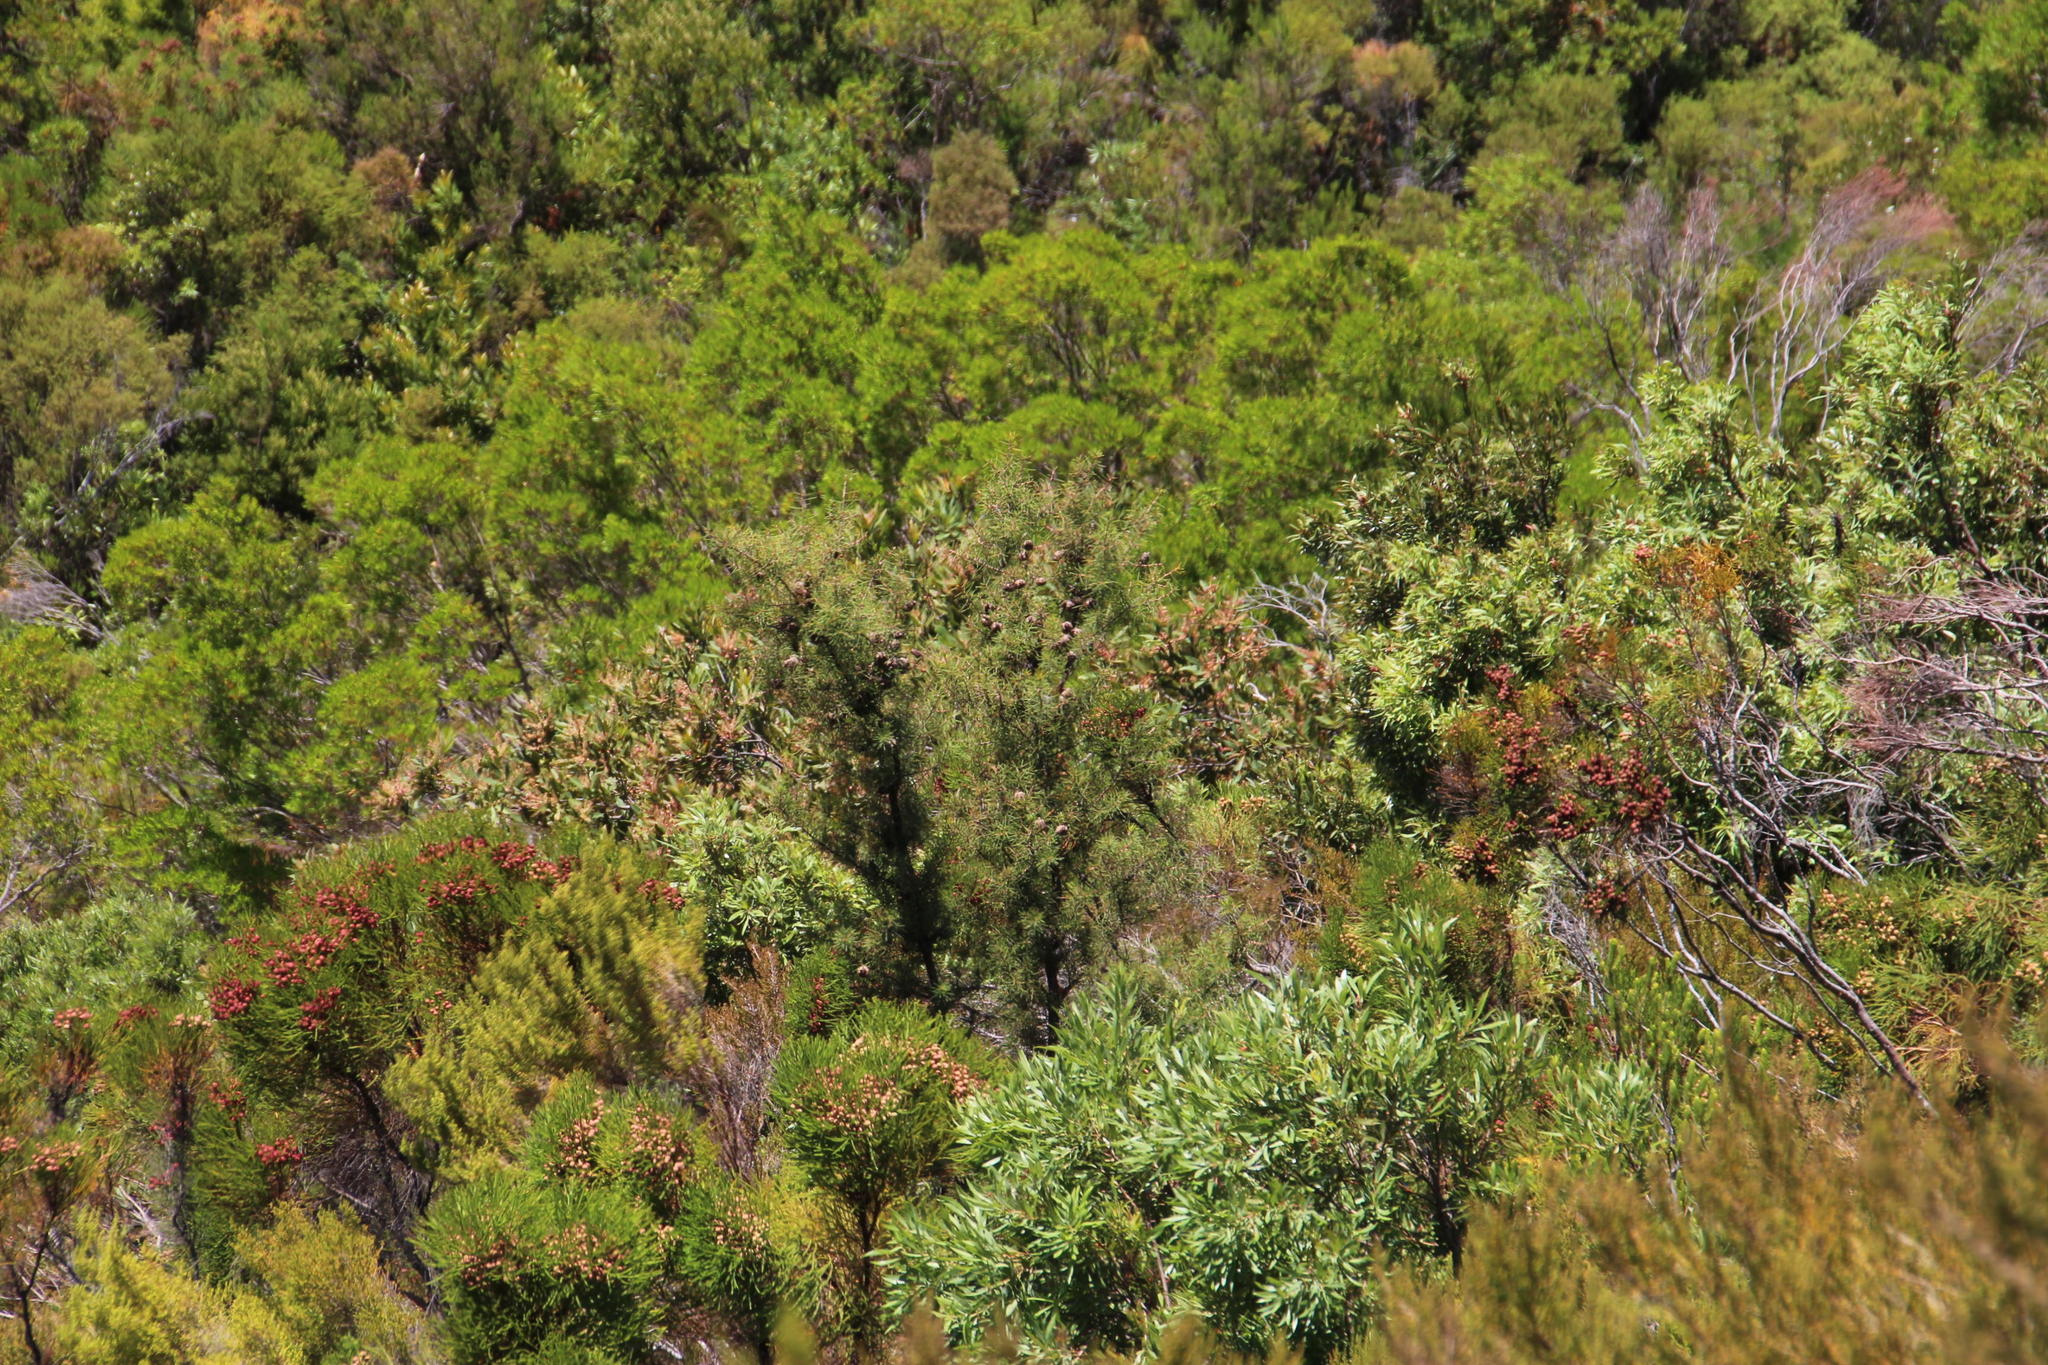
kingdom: Plantae
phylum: Tracheophyta
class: Magnoliopsida
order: Proteales
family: Proteaceae
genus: Hakea
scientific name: Hakea sericea
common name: Needle bush
